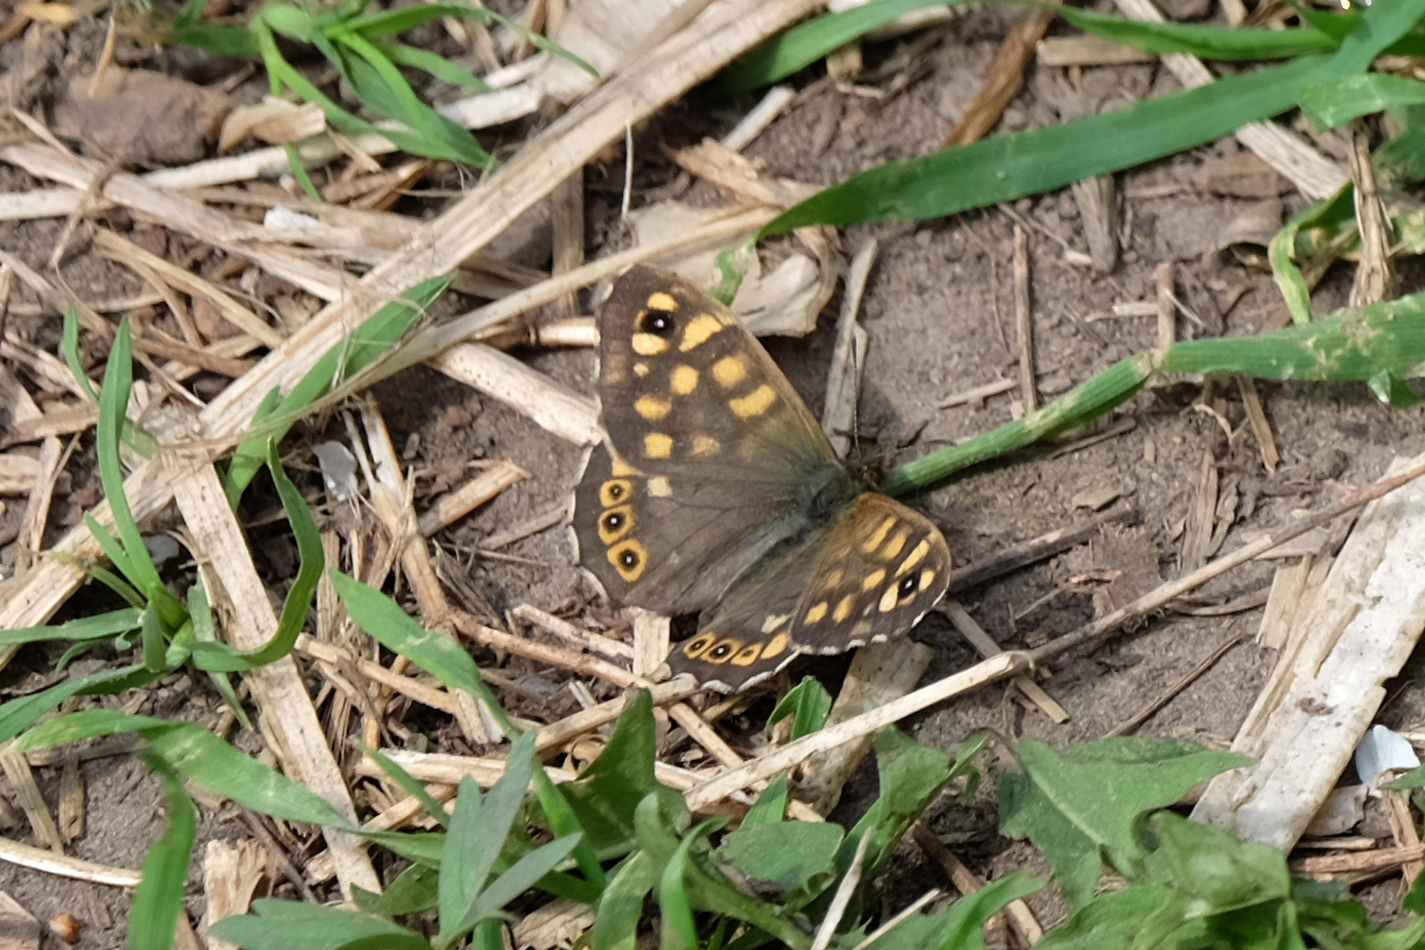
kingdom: Animalia
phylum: Arthropoda
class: Insecta
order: Lepidoptera
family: Nymphalidae
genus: Pararge
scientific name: Pararge aegeria
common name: Speckled wood
